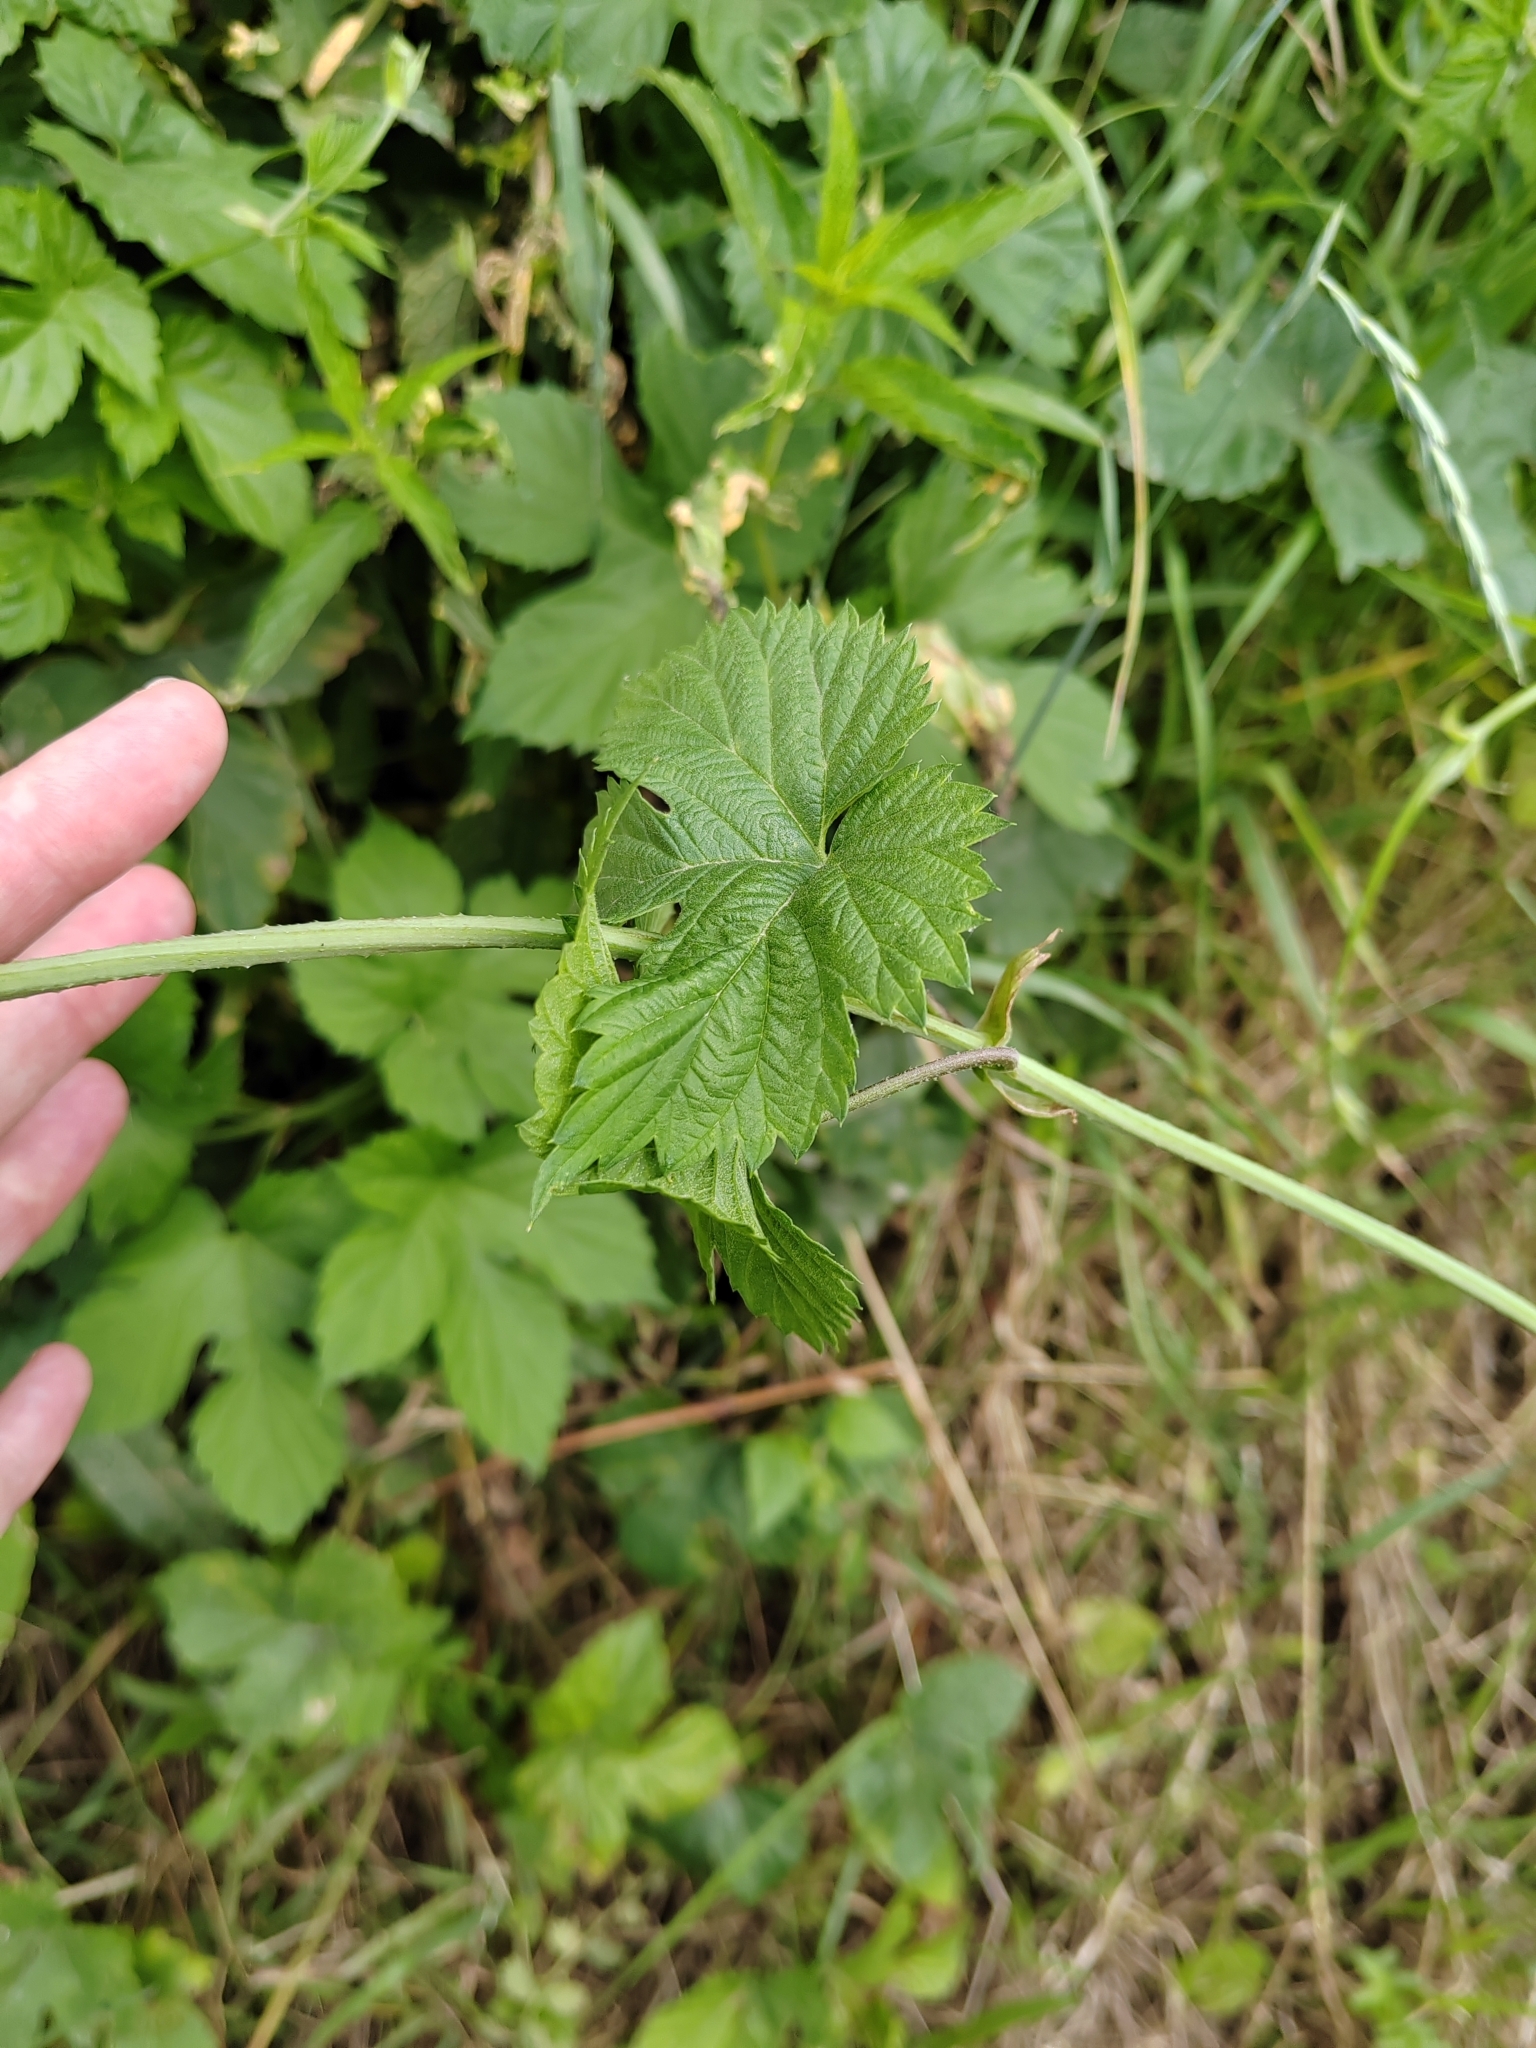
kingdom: Plantae
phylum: Tracheophyta
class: Magnoliopsida
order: Rosales
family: Cannabaceae
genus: Humulus
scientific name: Humulus lupulus
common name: Hop
